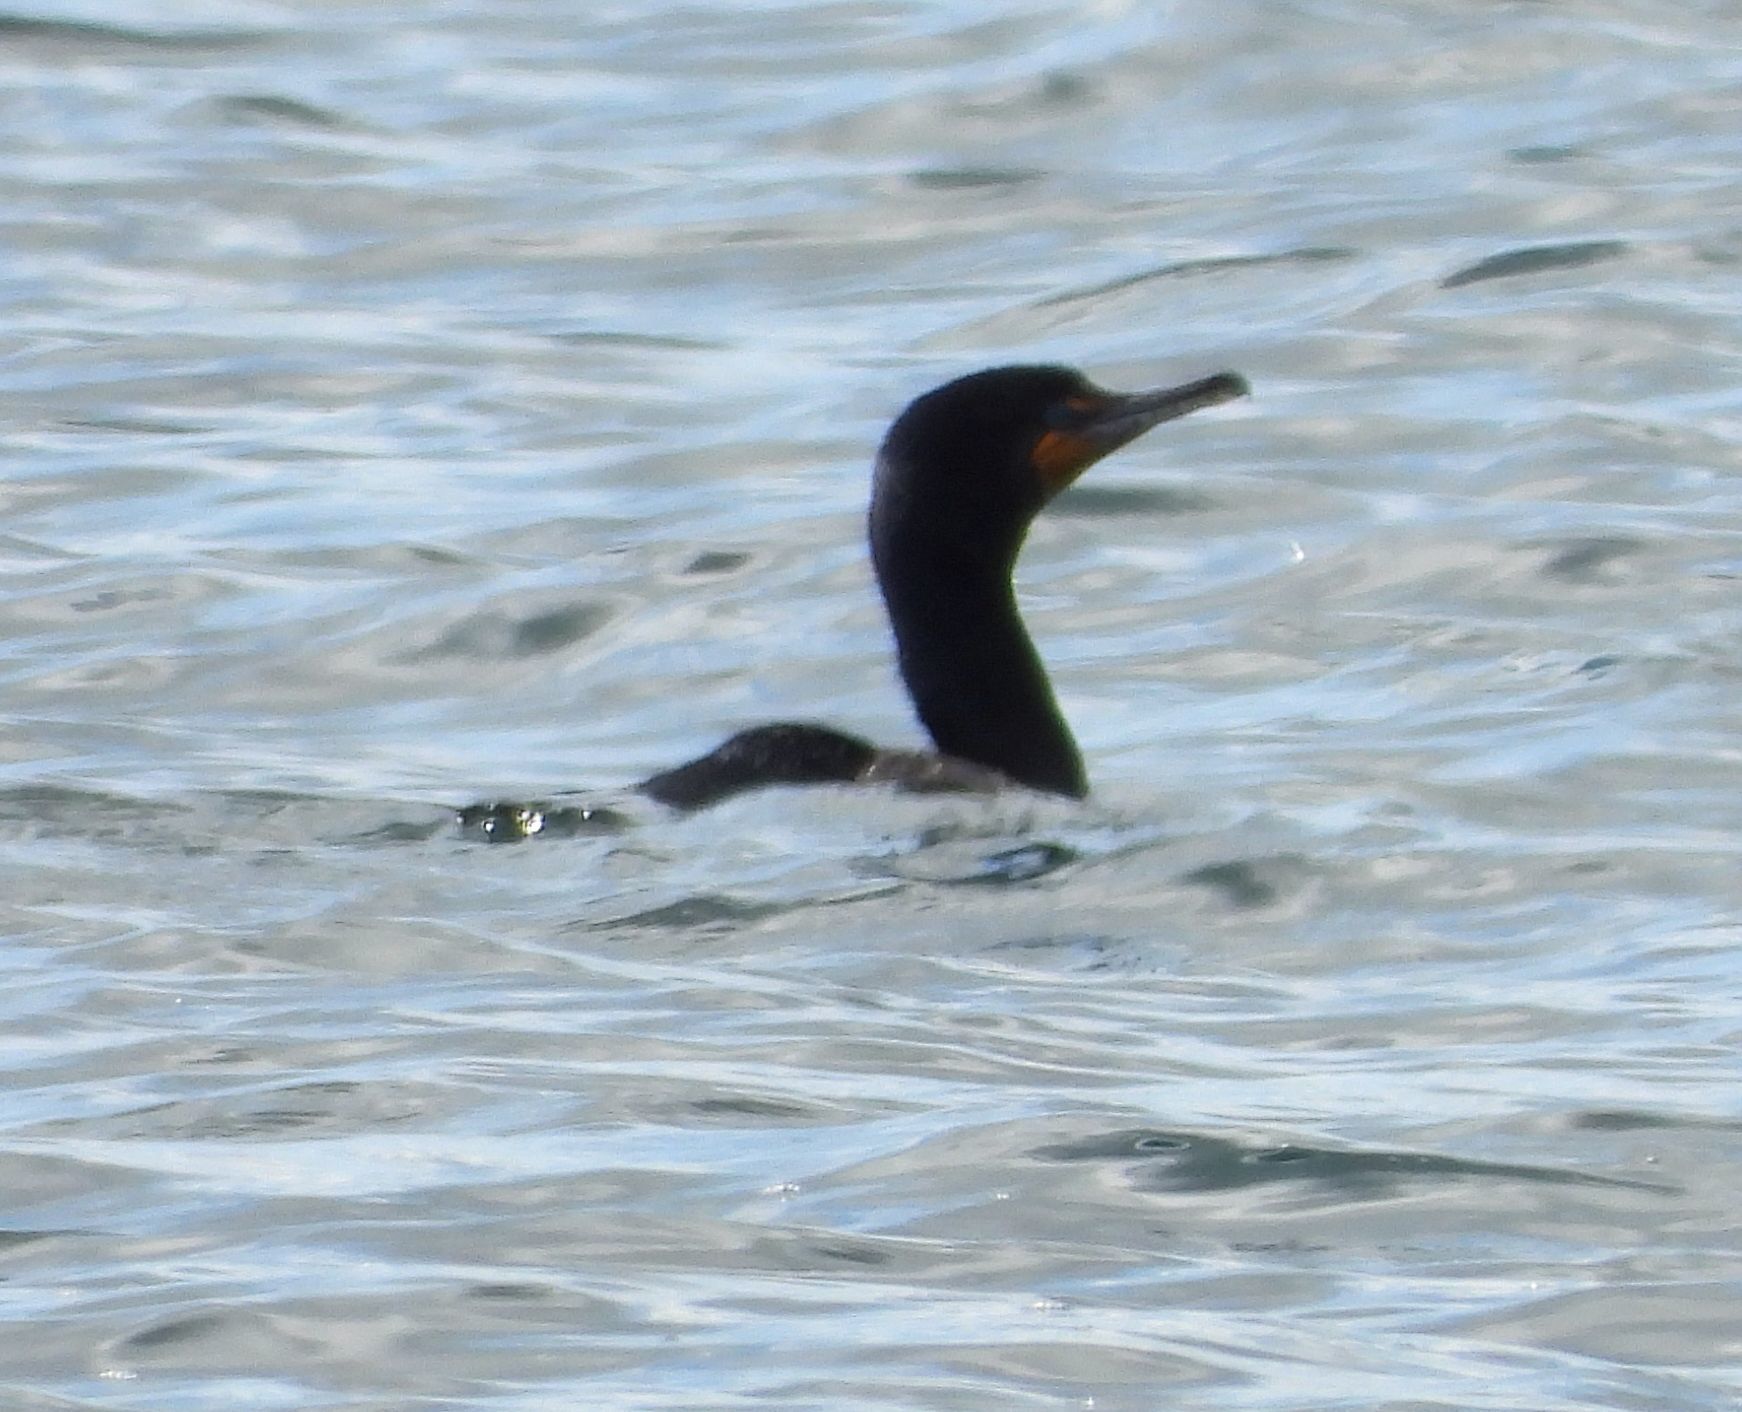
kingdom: Animalia
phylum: Chordata
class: Aves
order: Suliformes
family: Phalacrocoracidae
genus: Phalacrocorax
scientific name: Phalacrocorax auritus
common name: Double-crested cormorant
